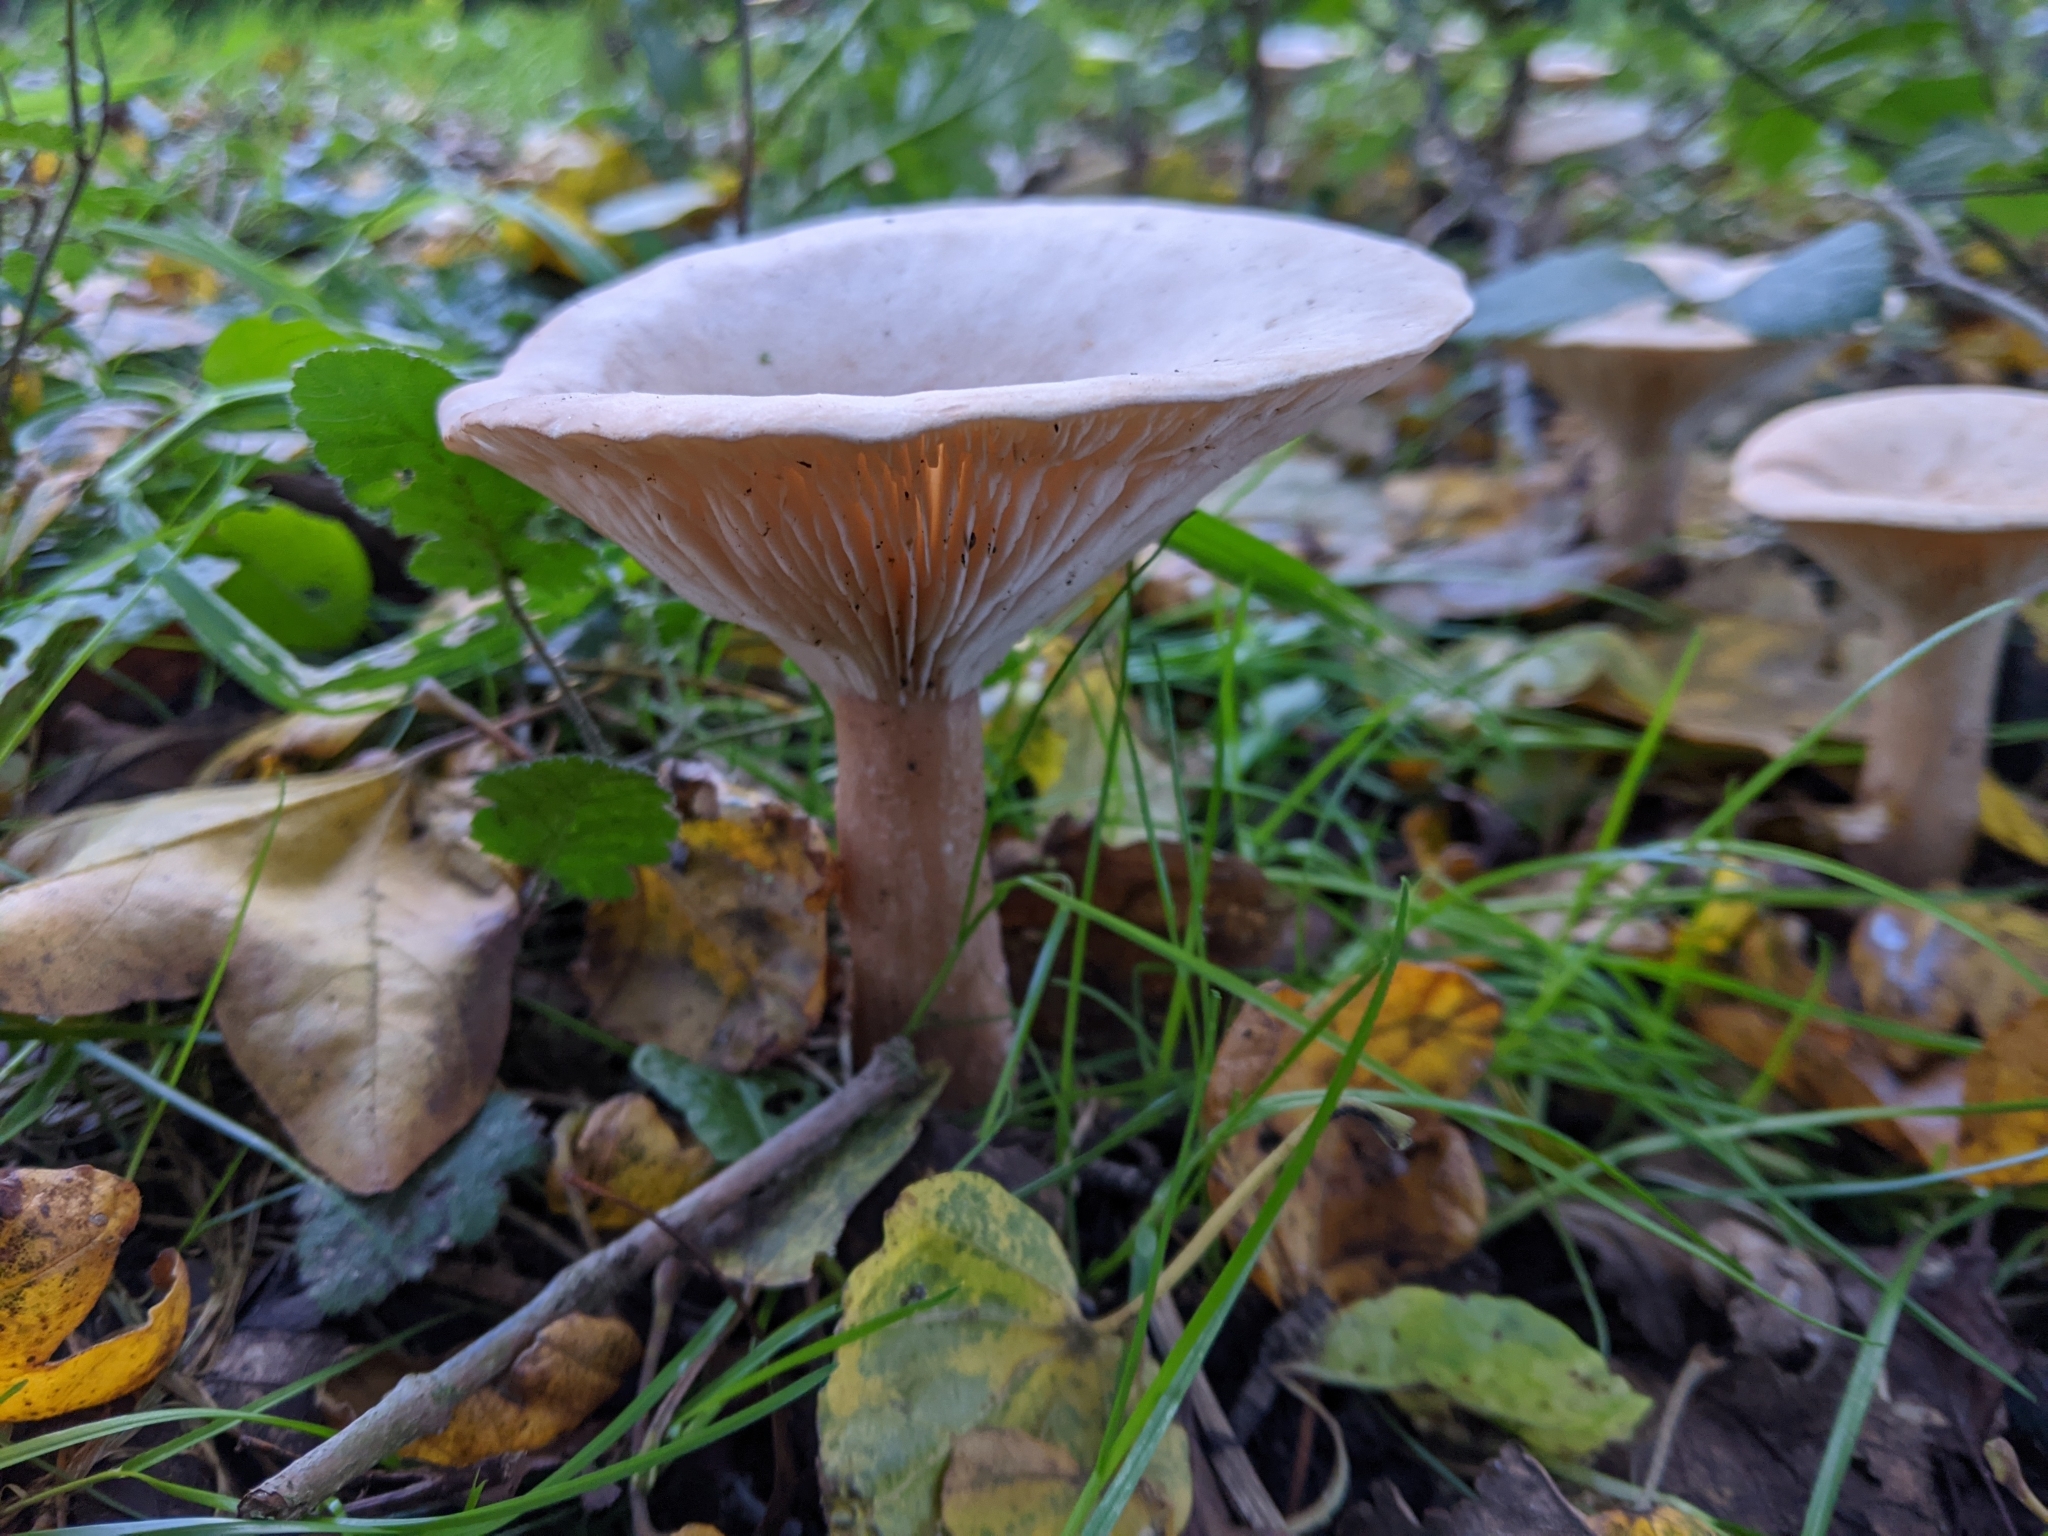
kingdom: Fungi
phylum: Basidiomycota
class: Agaricomycetes
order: Agaricales
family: Tricholomataceae
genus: Infundibulicybe
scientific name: Infundibulicybe geotropa
